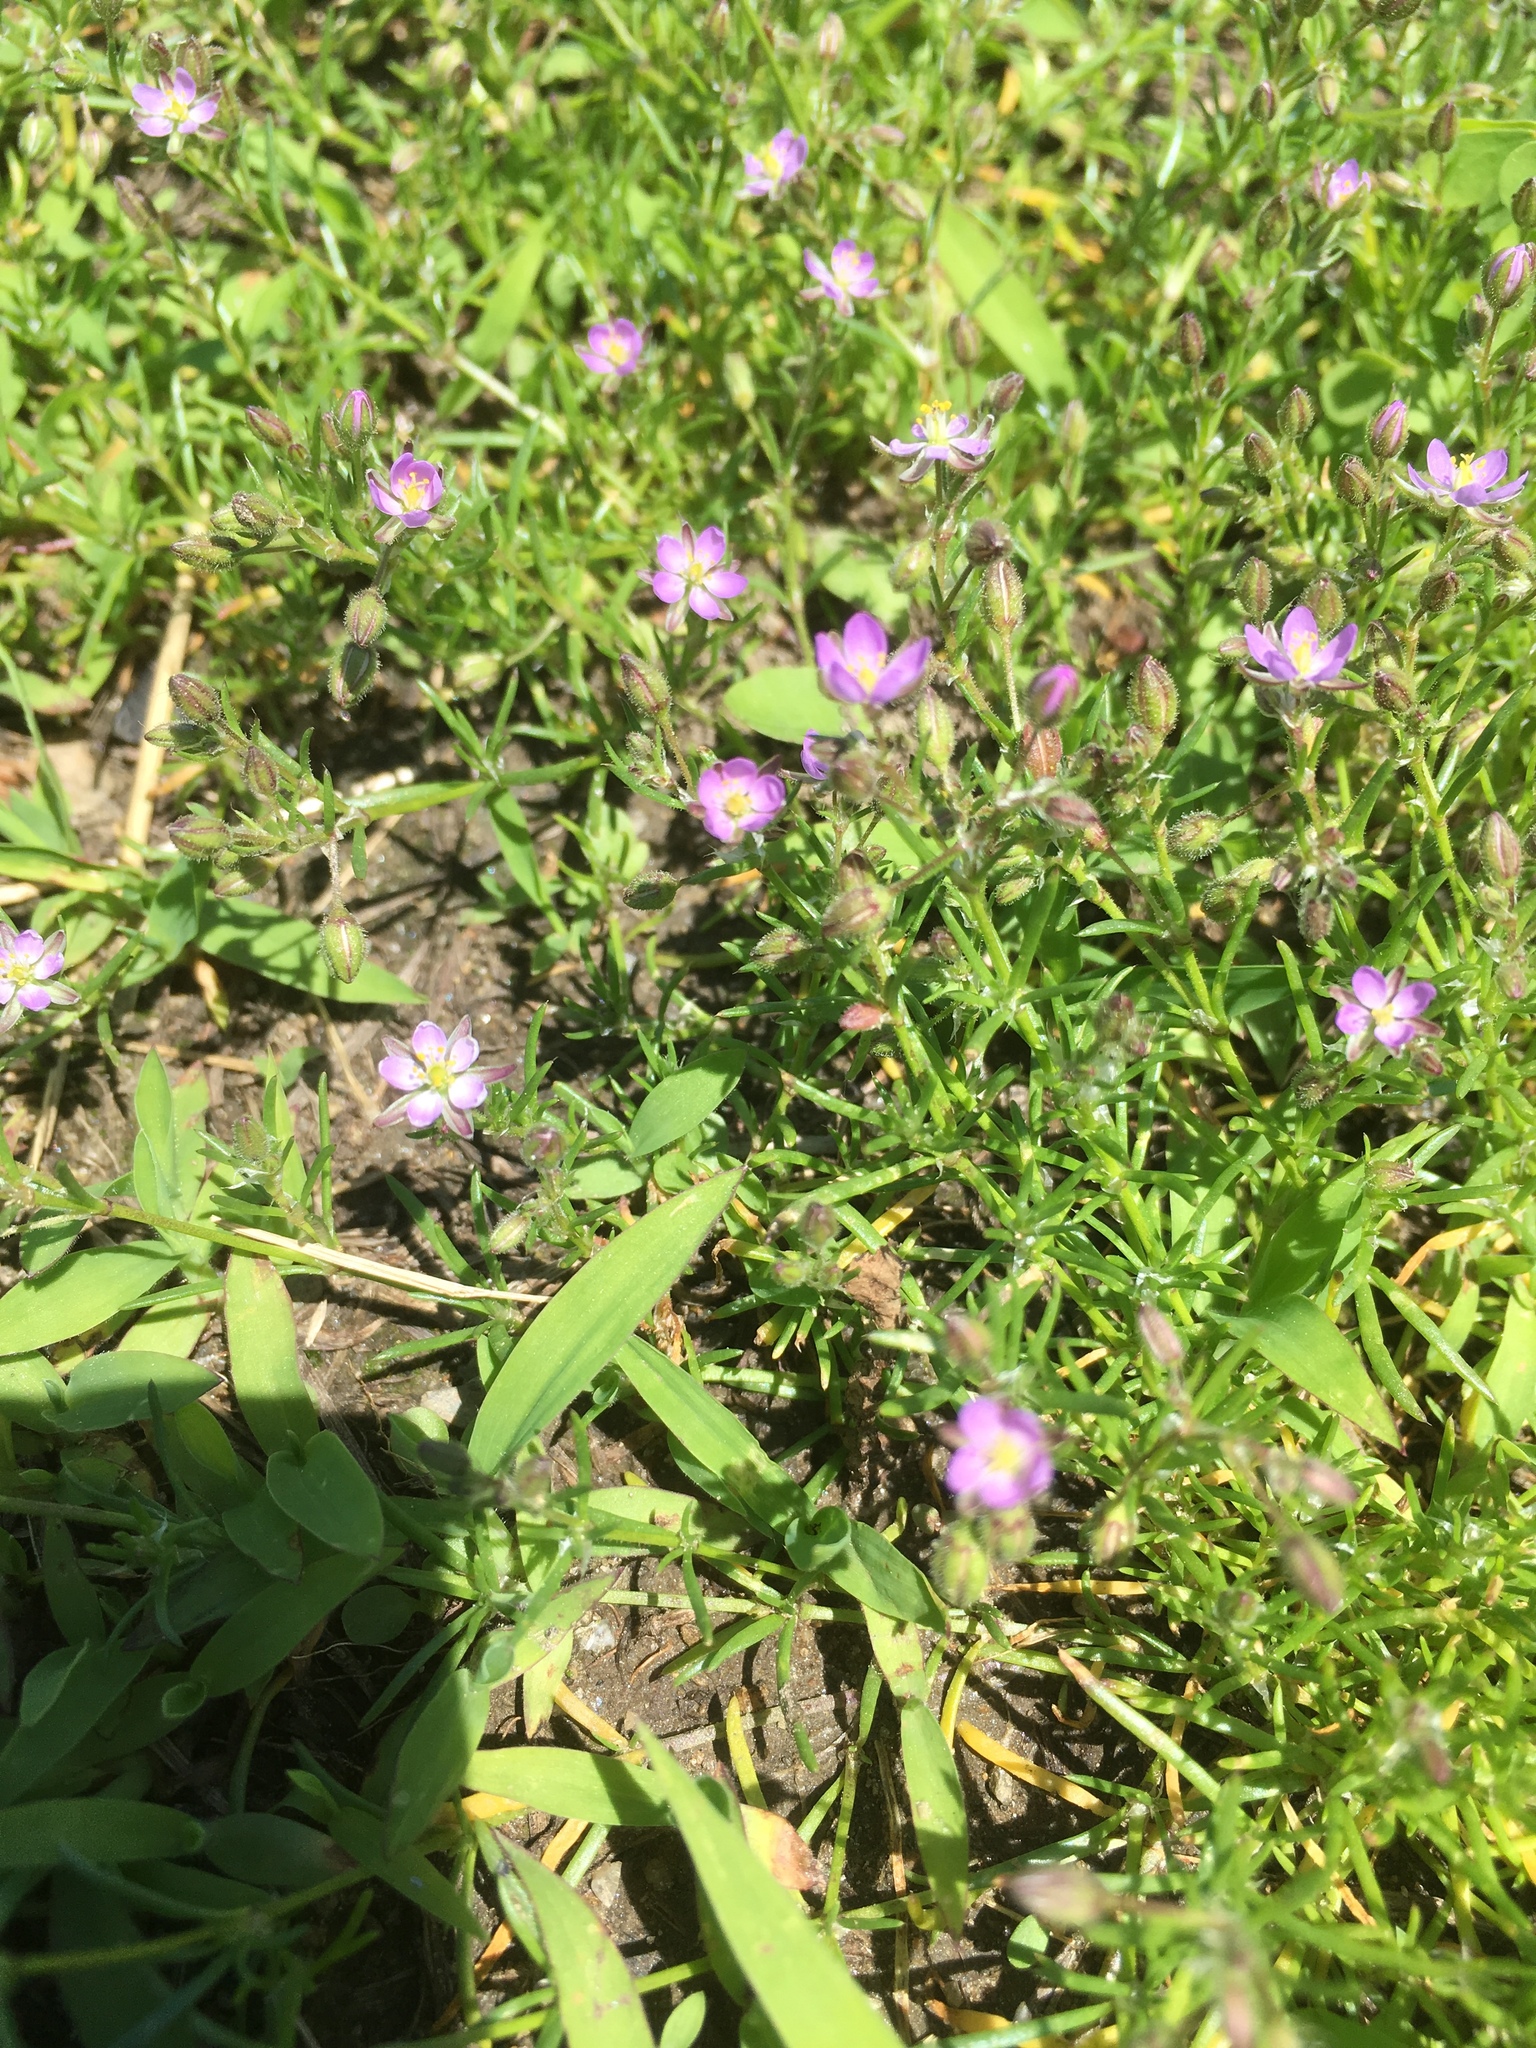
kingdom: Plantae
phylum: Tracheophyta
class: Magnoliopsida
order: Caryophyllales
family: Caryophyllaceae
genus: Spergularia
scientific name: Spergularia rubra
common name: Red sand-spurrey
